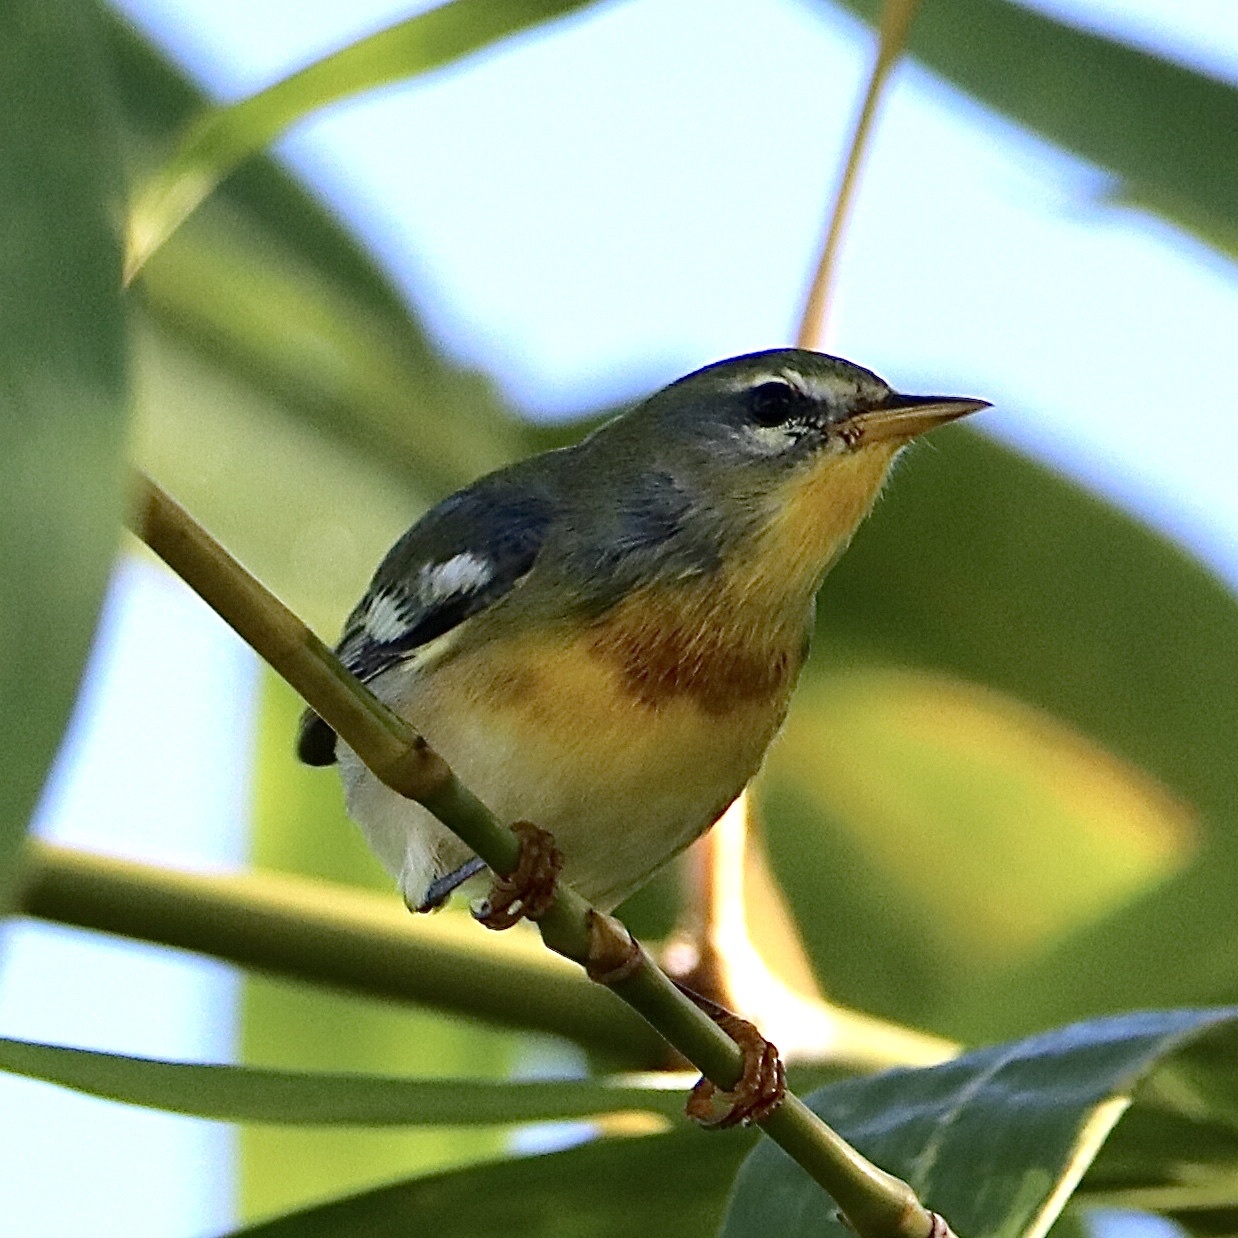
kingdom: Animalia
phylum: Chordata
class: Aves
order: Passeriformes
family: Parulidae
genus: Setophaga
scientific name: Setophaga americana
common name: Northern parula
